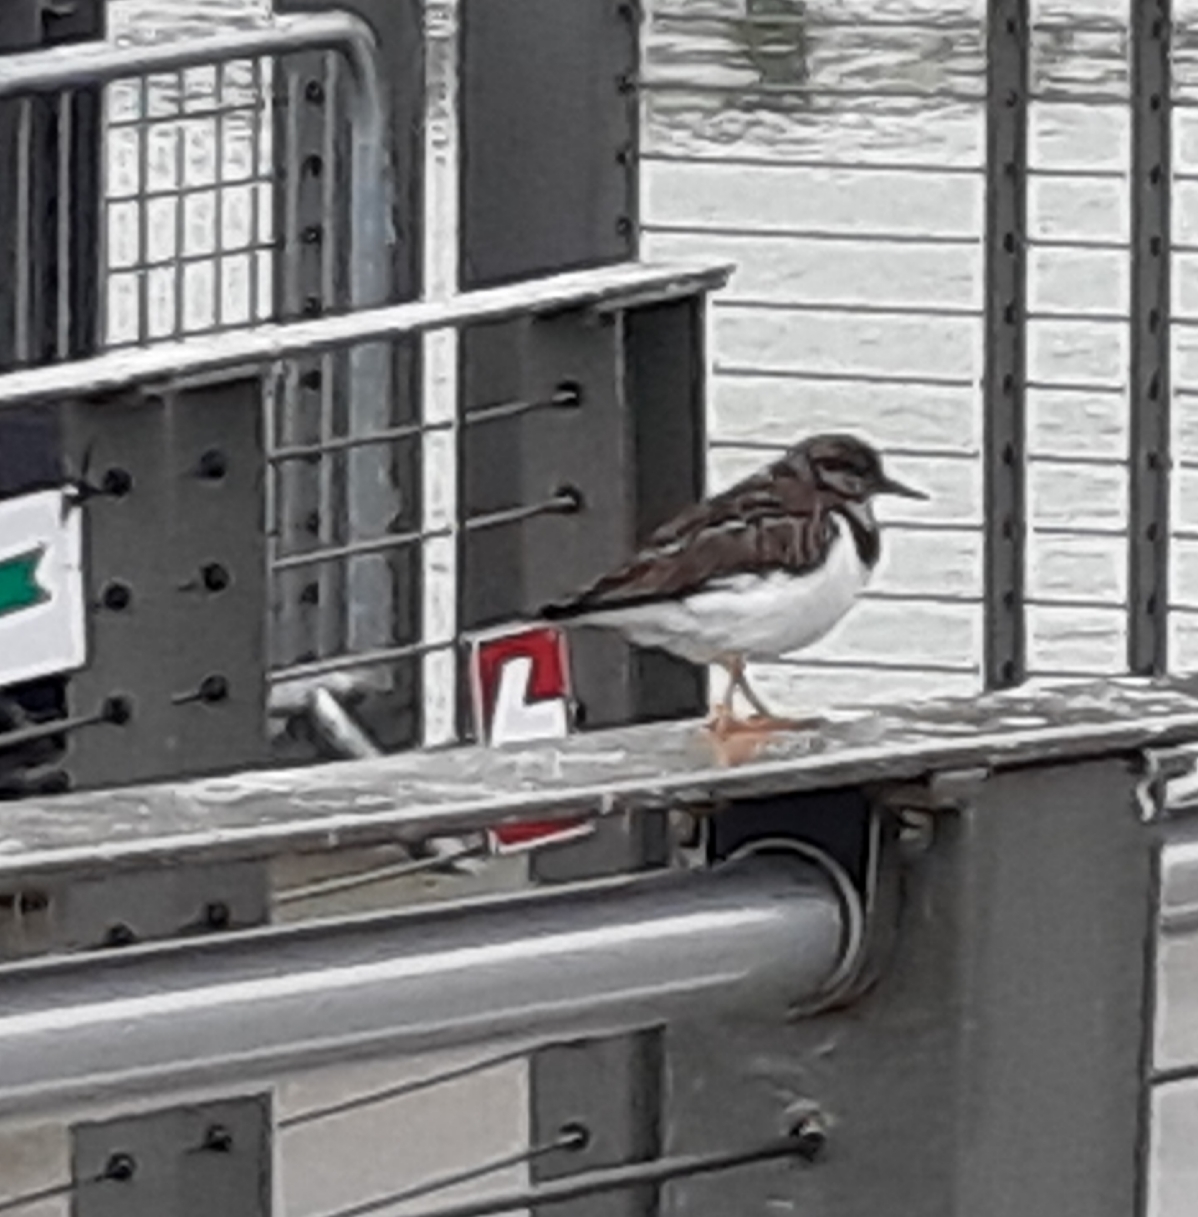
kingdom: Animalia
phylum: Chordata
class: Aves
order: Charadriiformes
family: Scolopacidae
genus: Arenaria
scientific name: Arenaria interpres
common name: Ruddy turnstone
